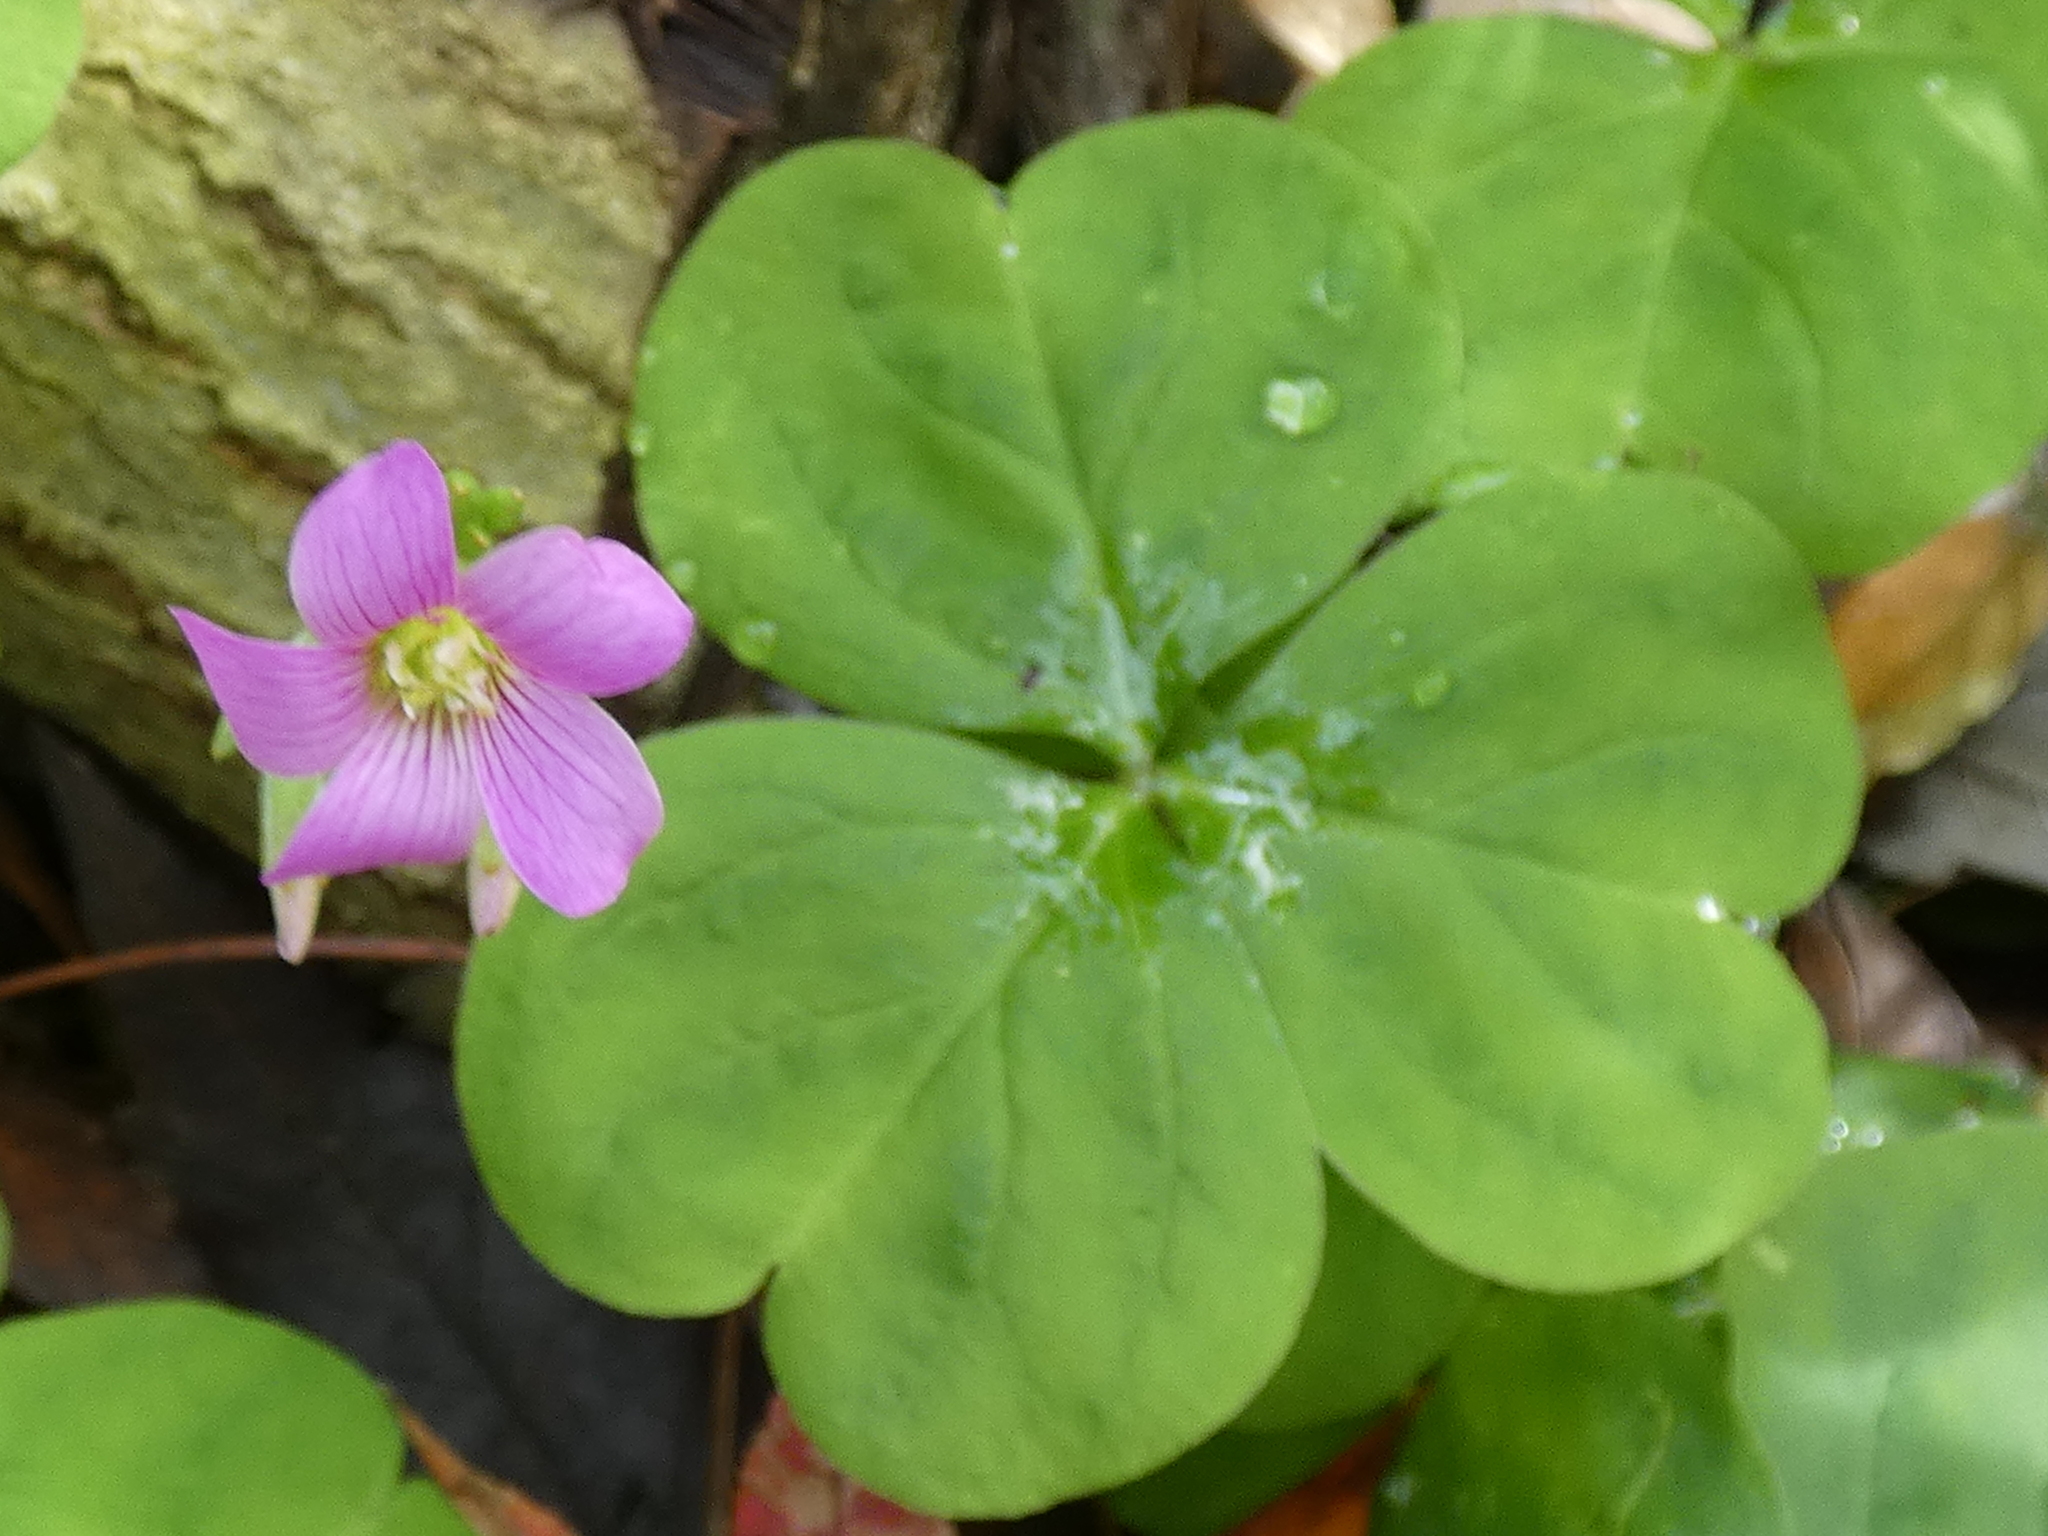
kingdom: Plantae
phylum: Tracheophyta
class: Magnoliopsida
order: Oxalidales
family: Oxalidaceae
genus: Oxalis
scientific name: Oxalis debilis
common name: Large-flowered pink-sorrel
